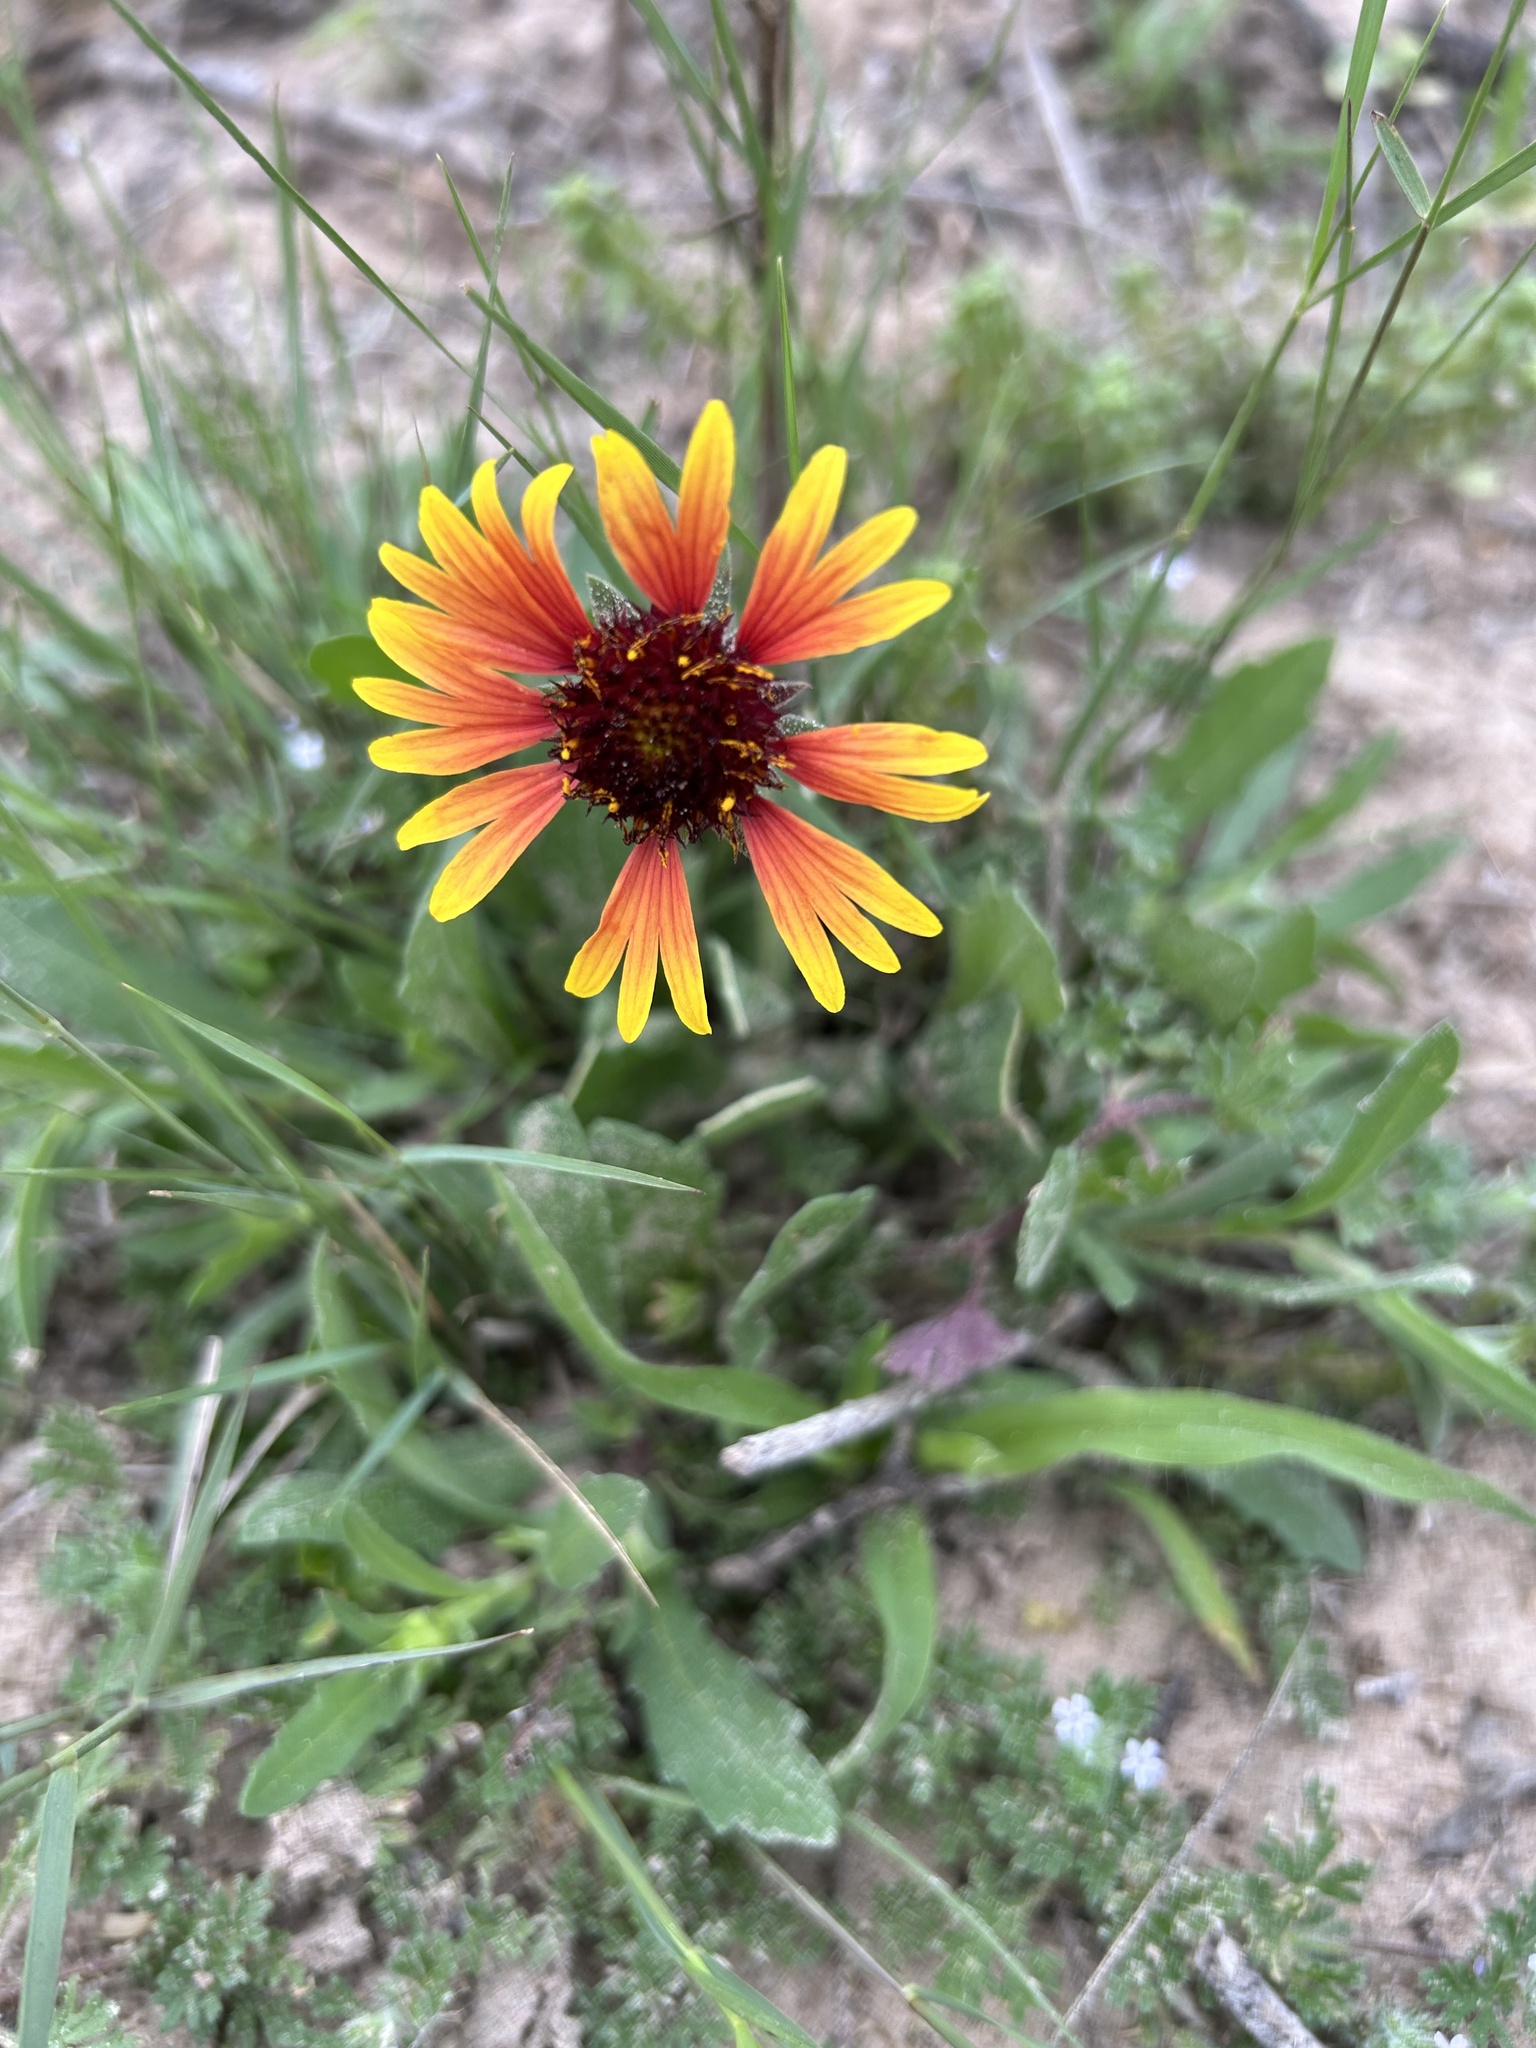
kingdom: Plantae
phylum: Tracheophyta
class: Magnoliopsida
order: Asterales
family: Asteraceae
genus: Gaillardia
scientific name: Gaillardia pulchella
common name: Firewheel
